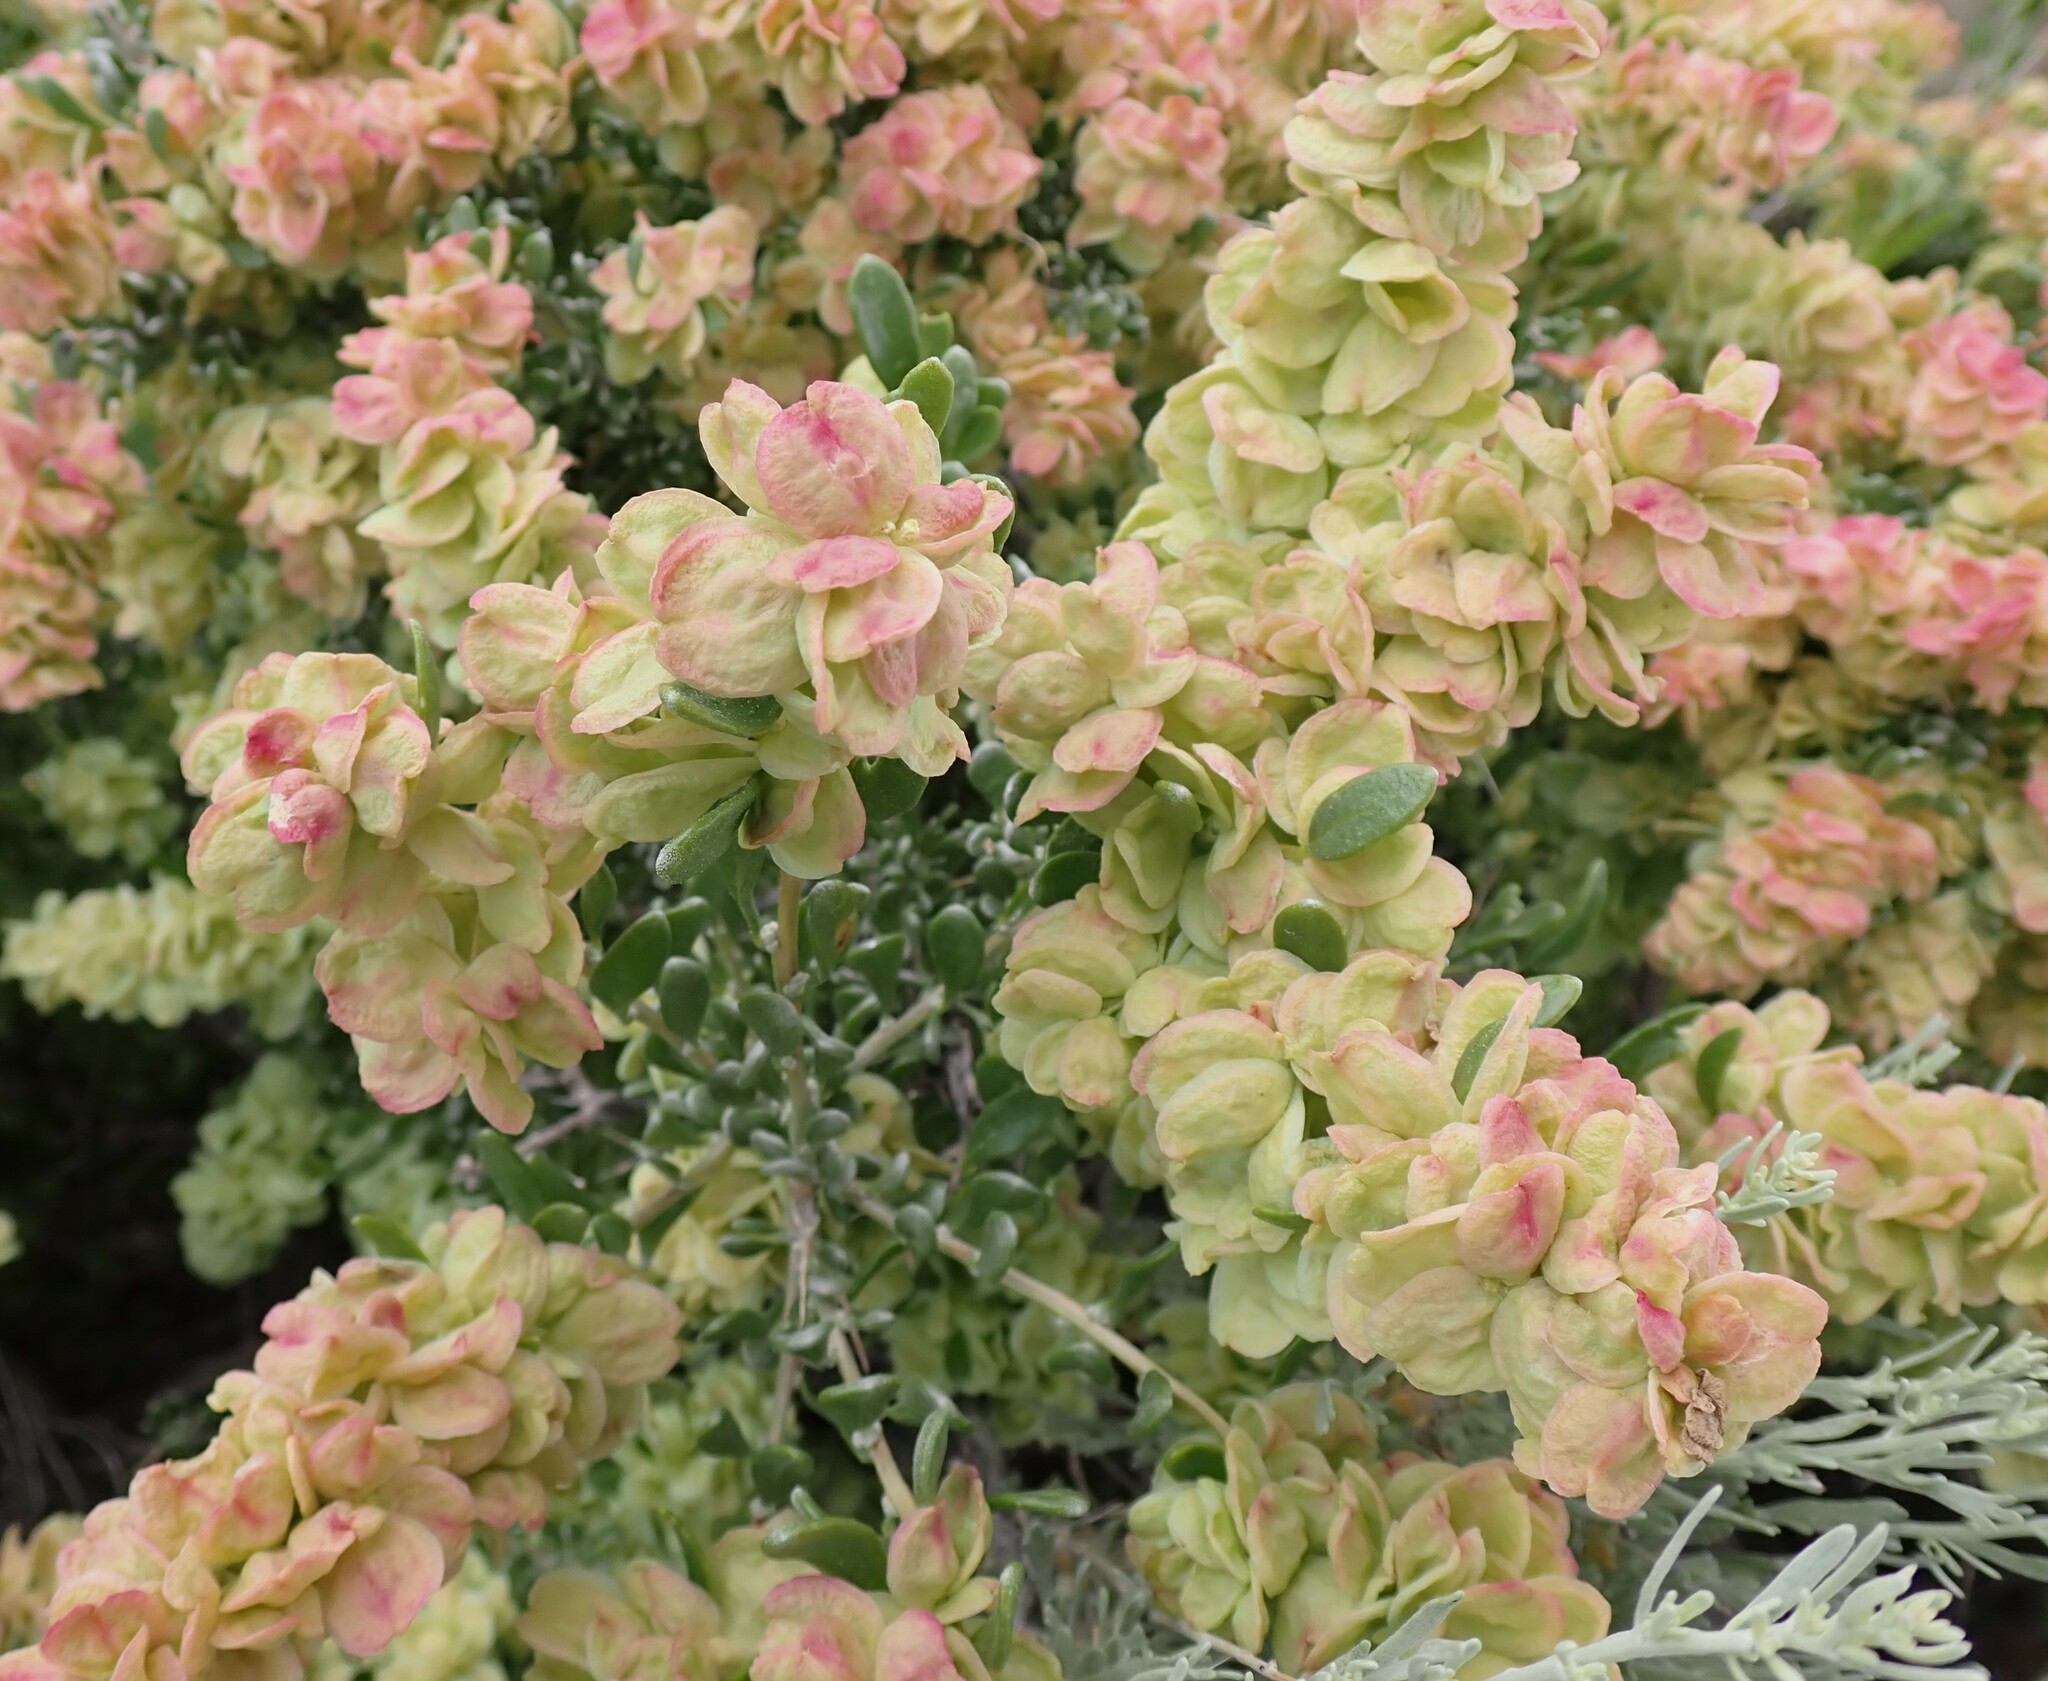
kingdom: Plantae
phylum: Tracheophyta
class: Magnoliopsida
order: Caryophyllales
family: Amaranthaceae
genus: Grayia
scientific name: Grayia spinosa
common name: Spiny hopsage
